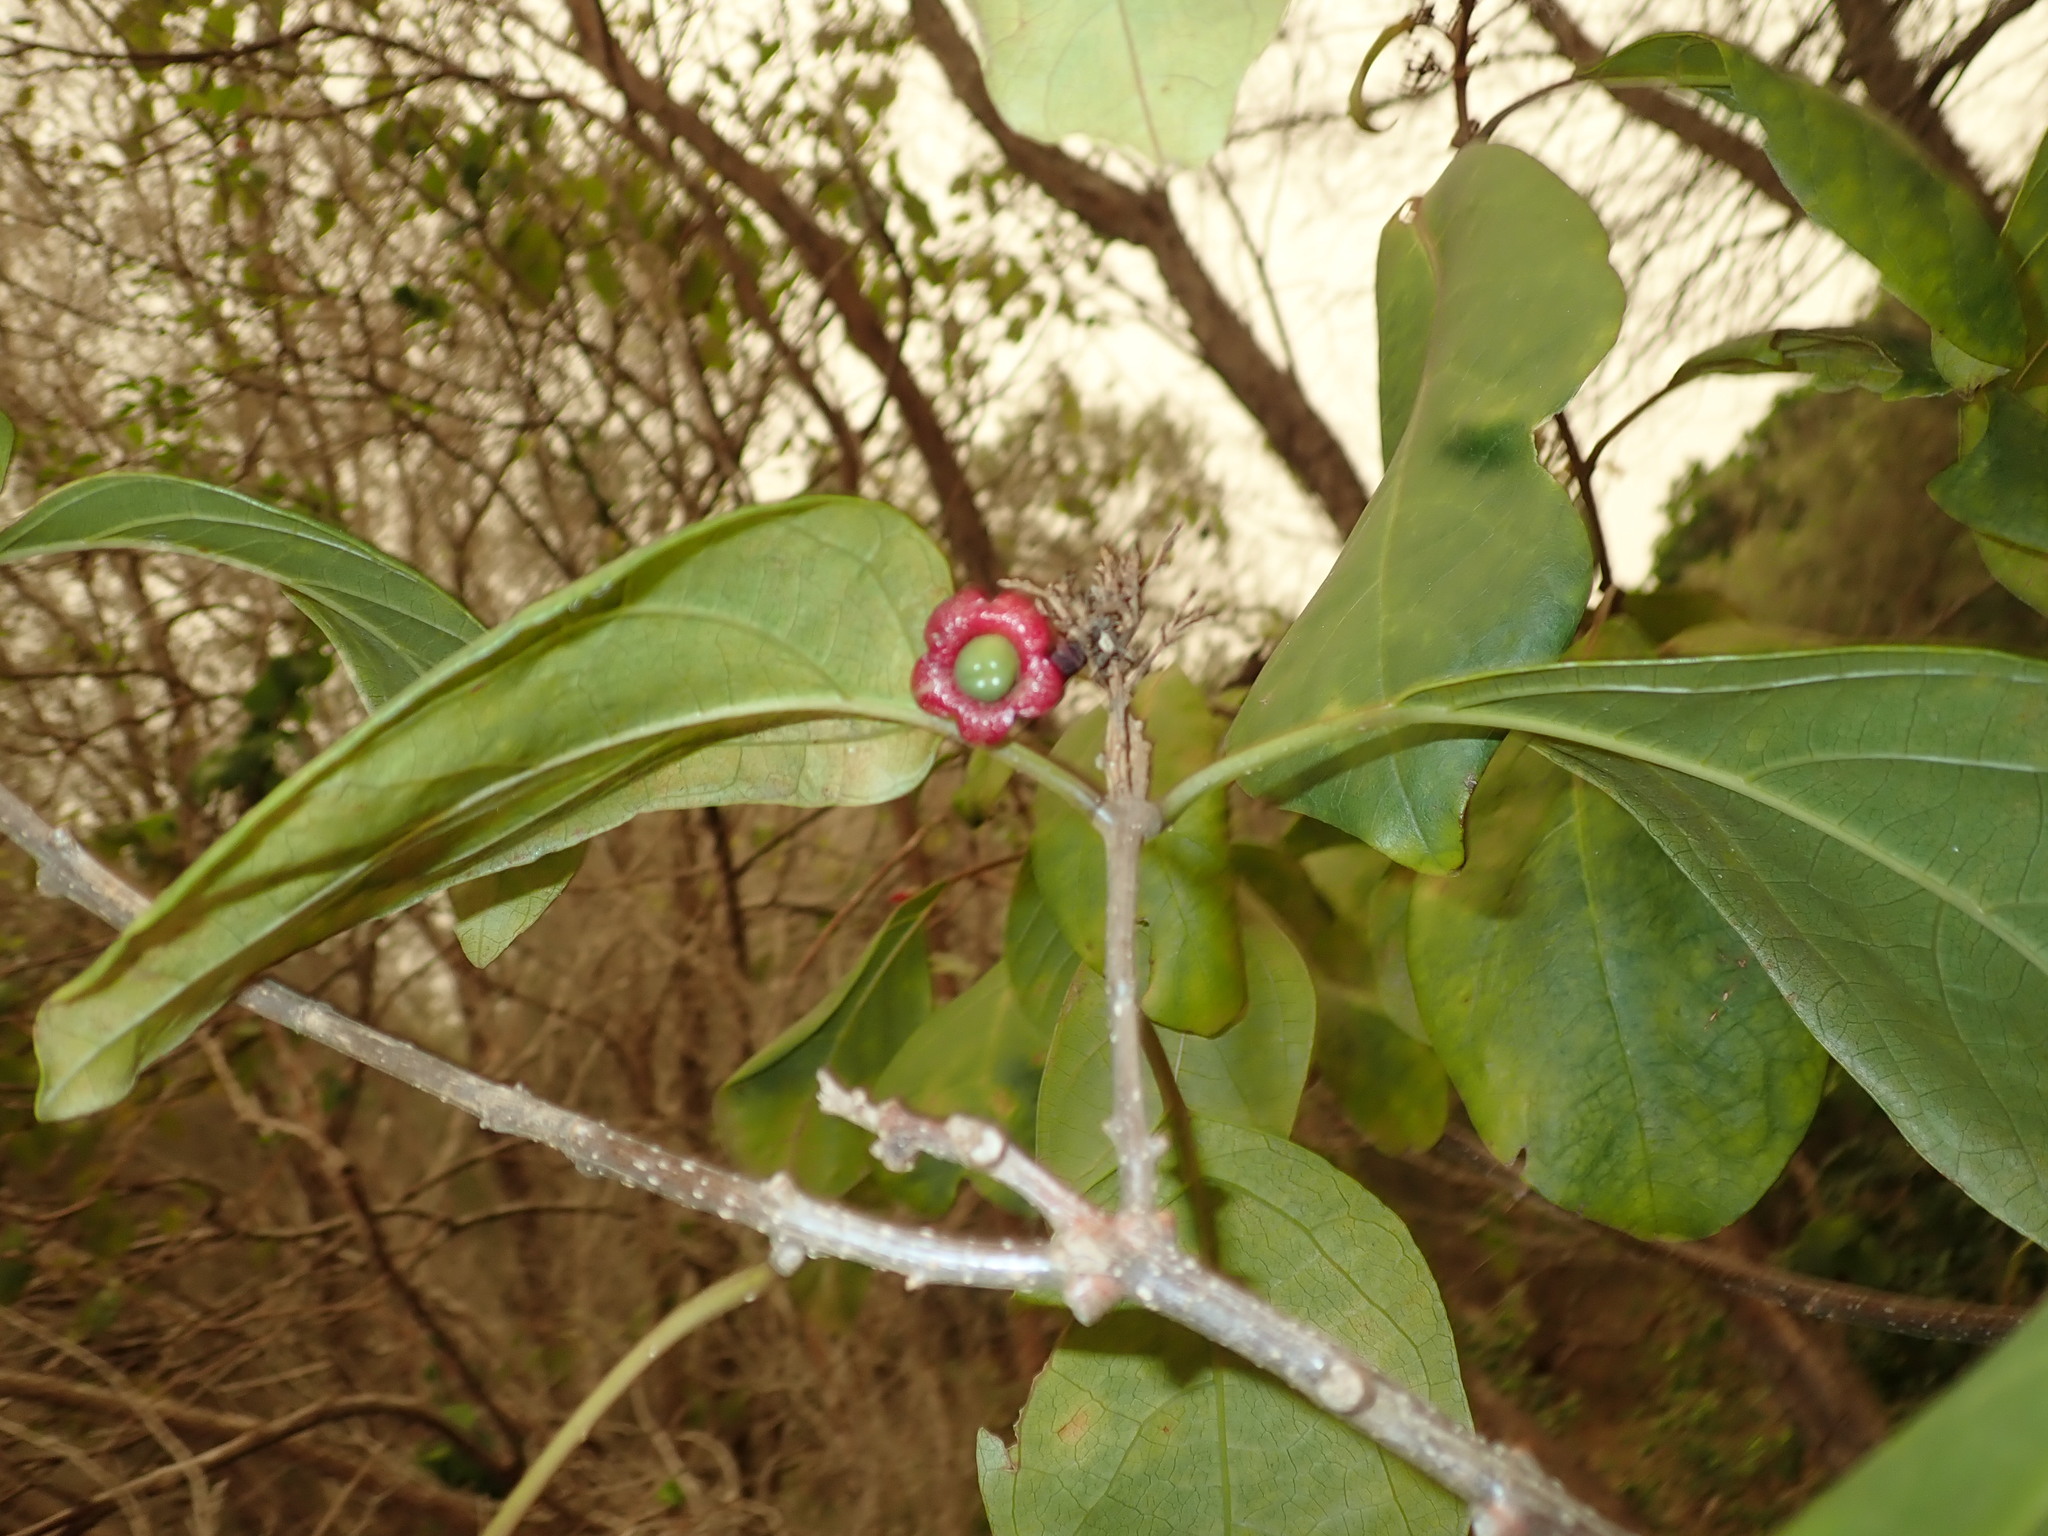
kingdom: Plantae
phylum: Tracheophyta
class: Magnoliopsida
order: Lamiales
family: Lamiaceae
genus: Clerodendrum
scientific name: Clerodendrum floribundum
